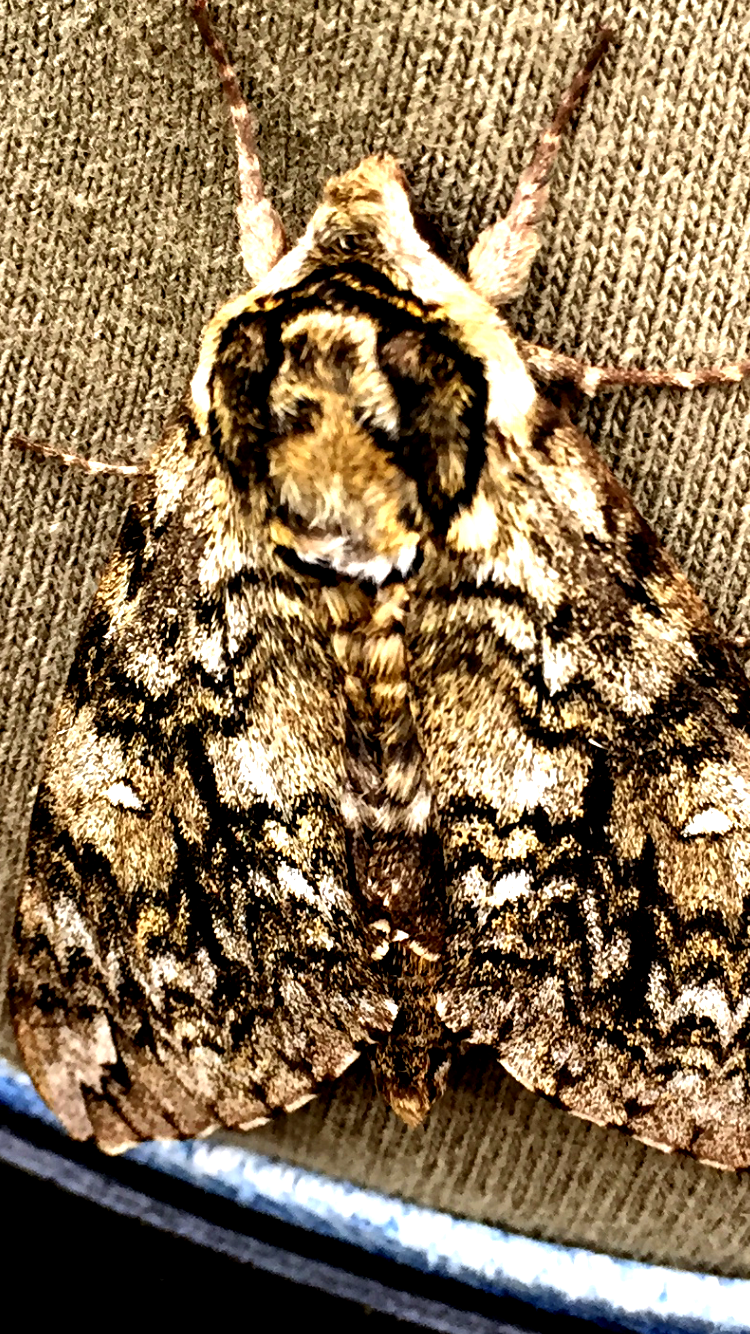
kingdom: Animalia
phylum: Arthropoda
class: Insecta
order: Lepidoptera
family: Sphingidae
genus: Ceratomia
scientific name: Ceratomia undulosa
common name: Waved sphinx
